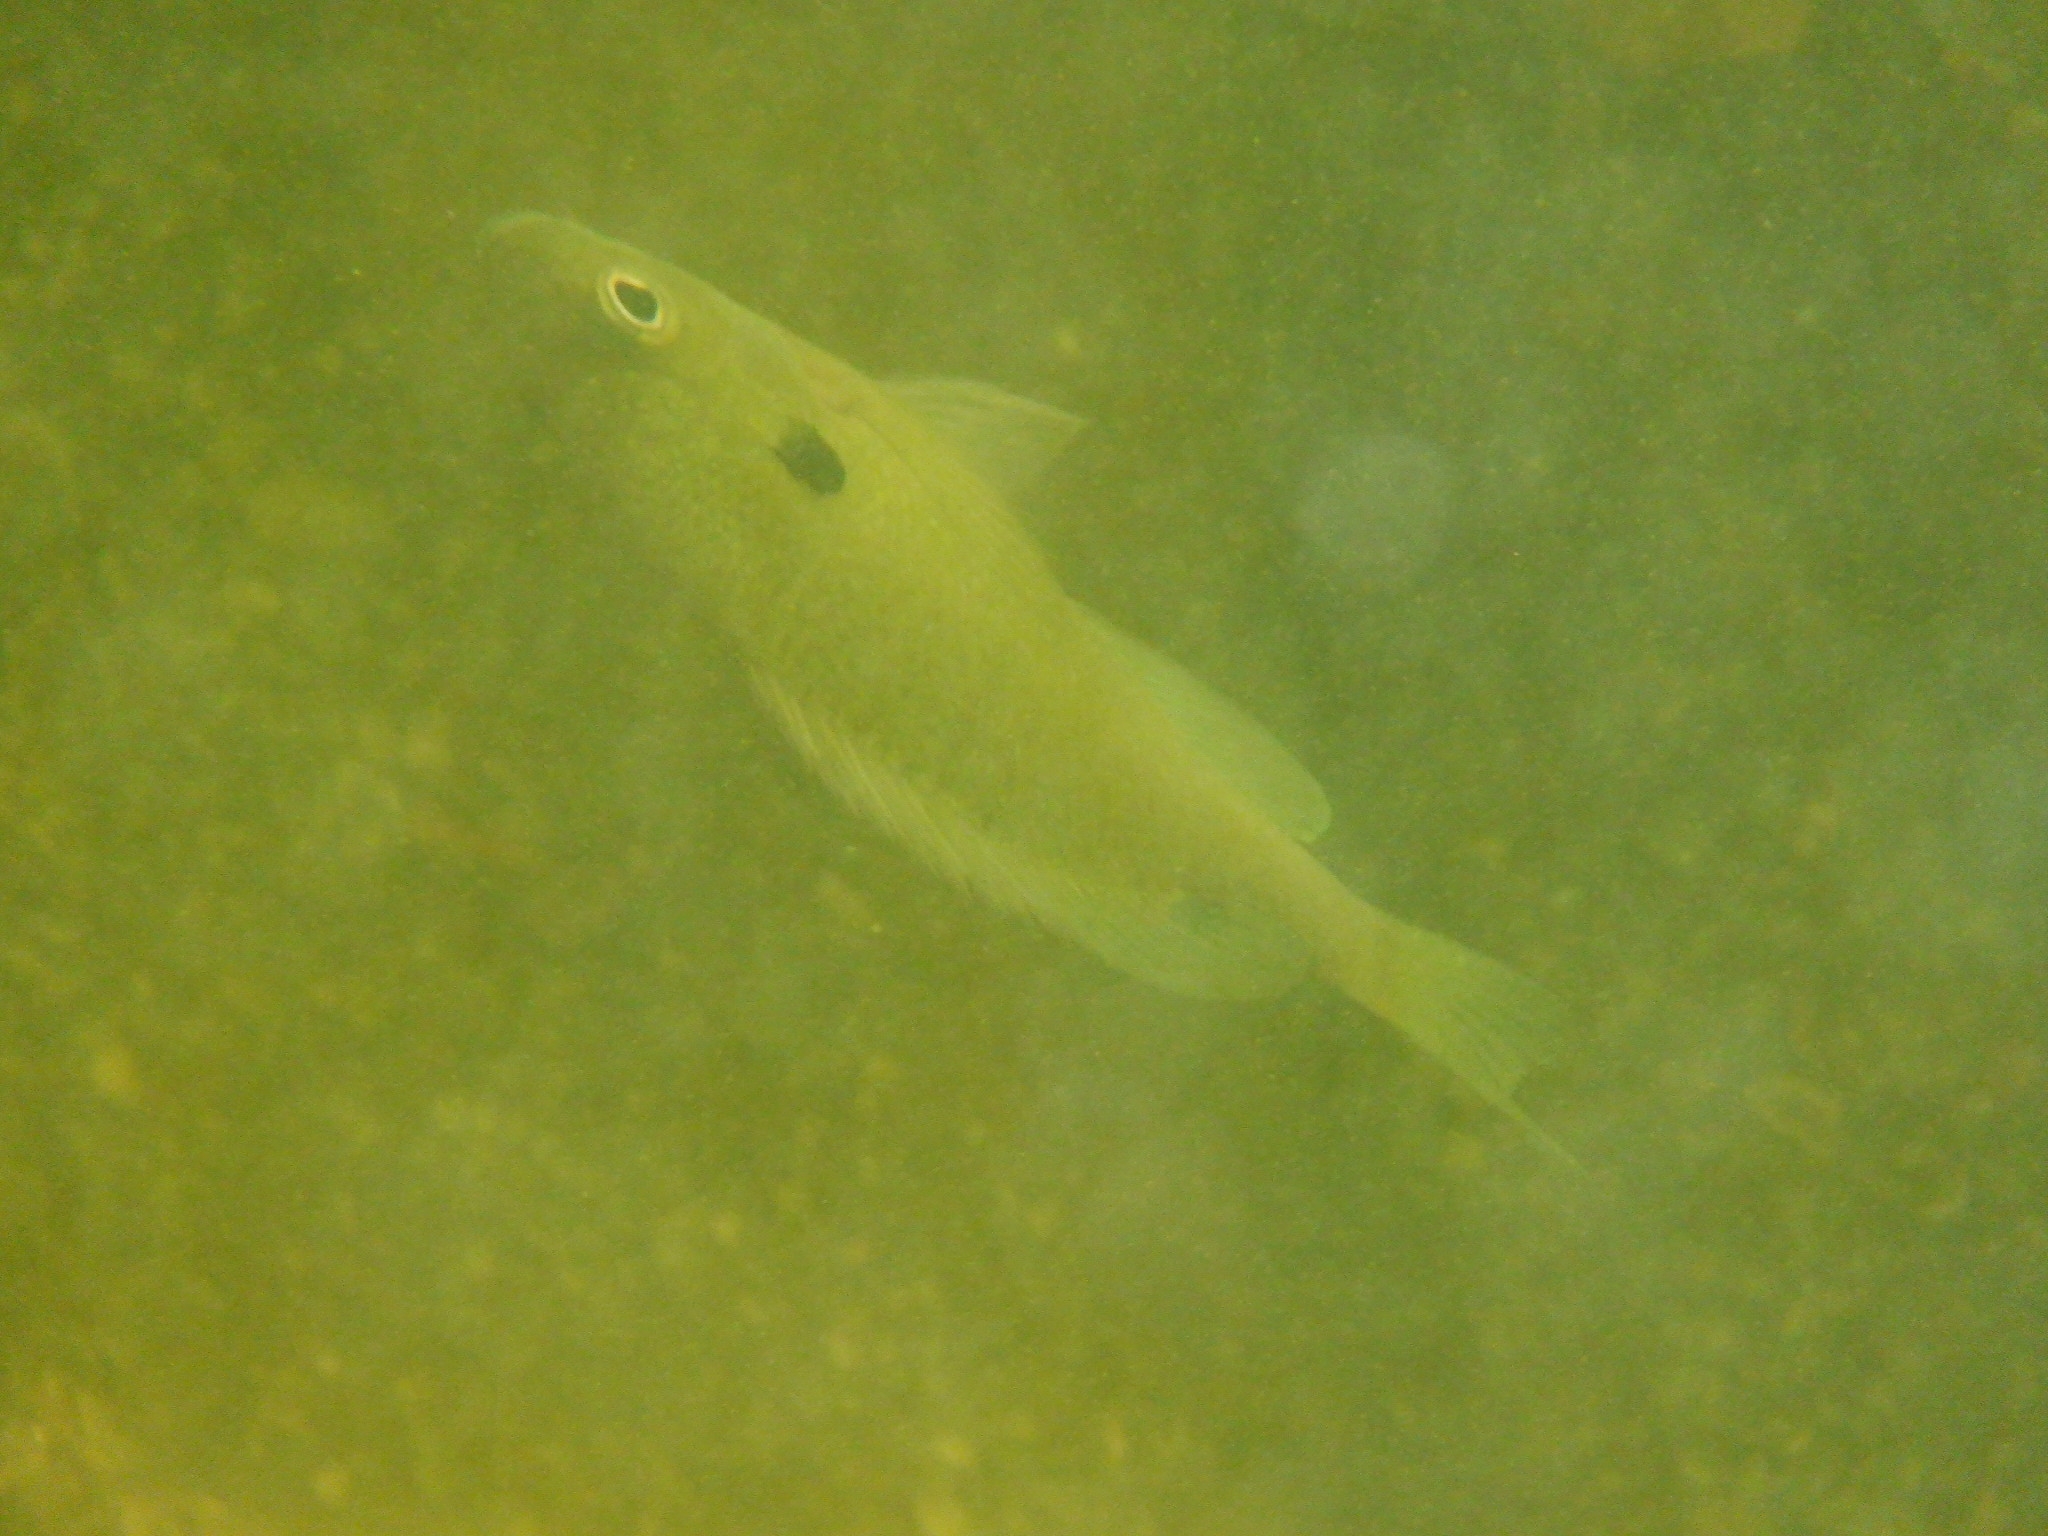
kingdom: Animalia
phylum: Chordata
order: Perciformes
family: Centrarchidae
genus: Lepomis
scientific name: Lepomis macrochirus
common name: Bluegill
